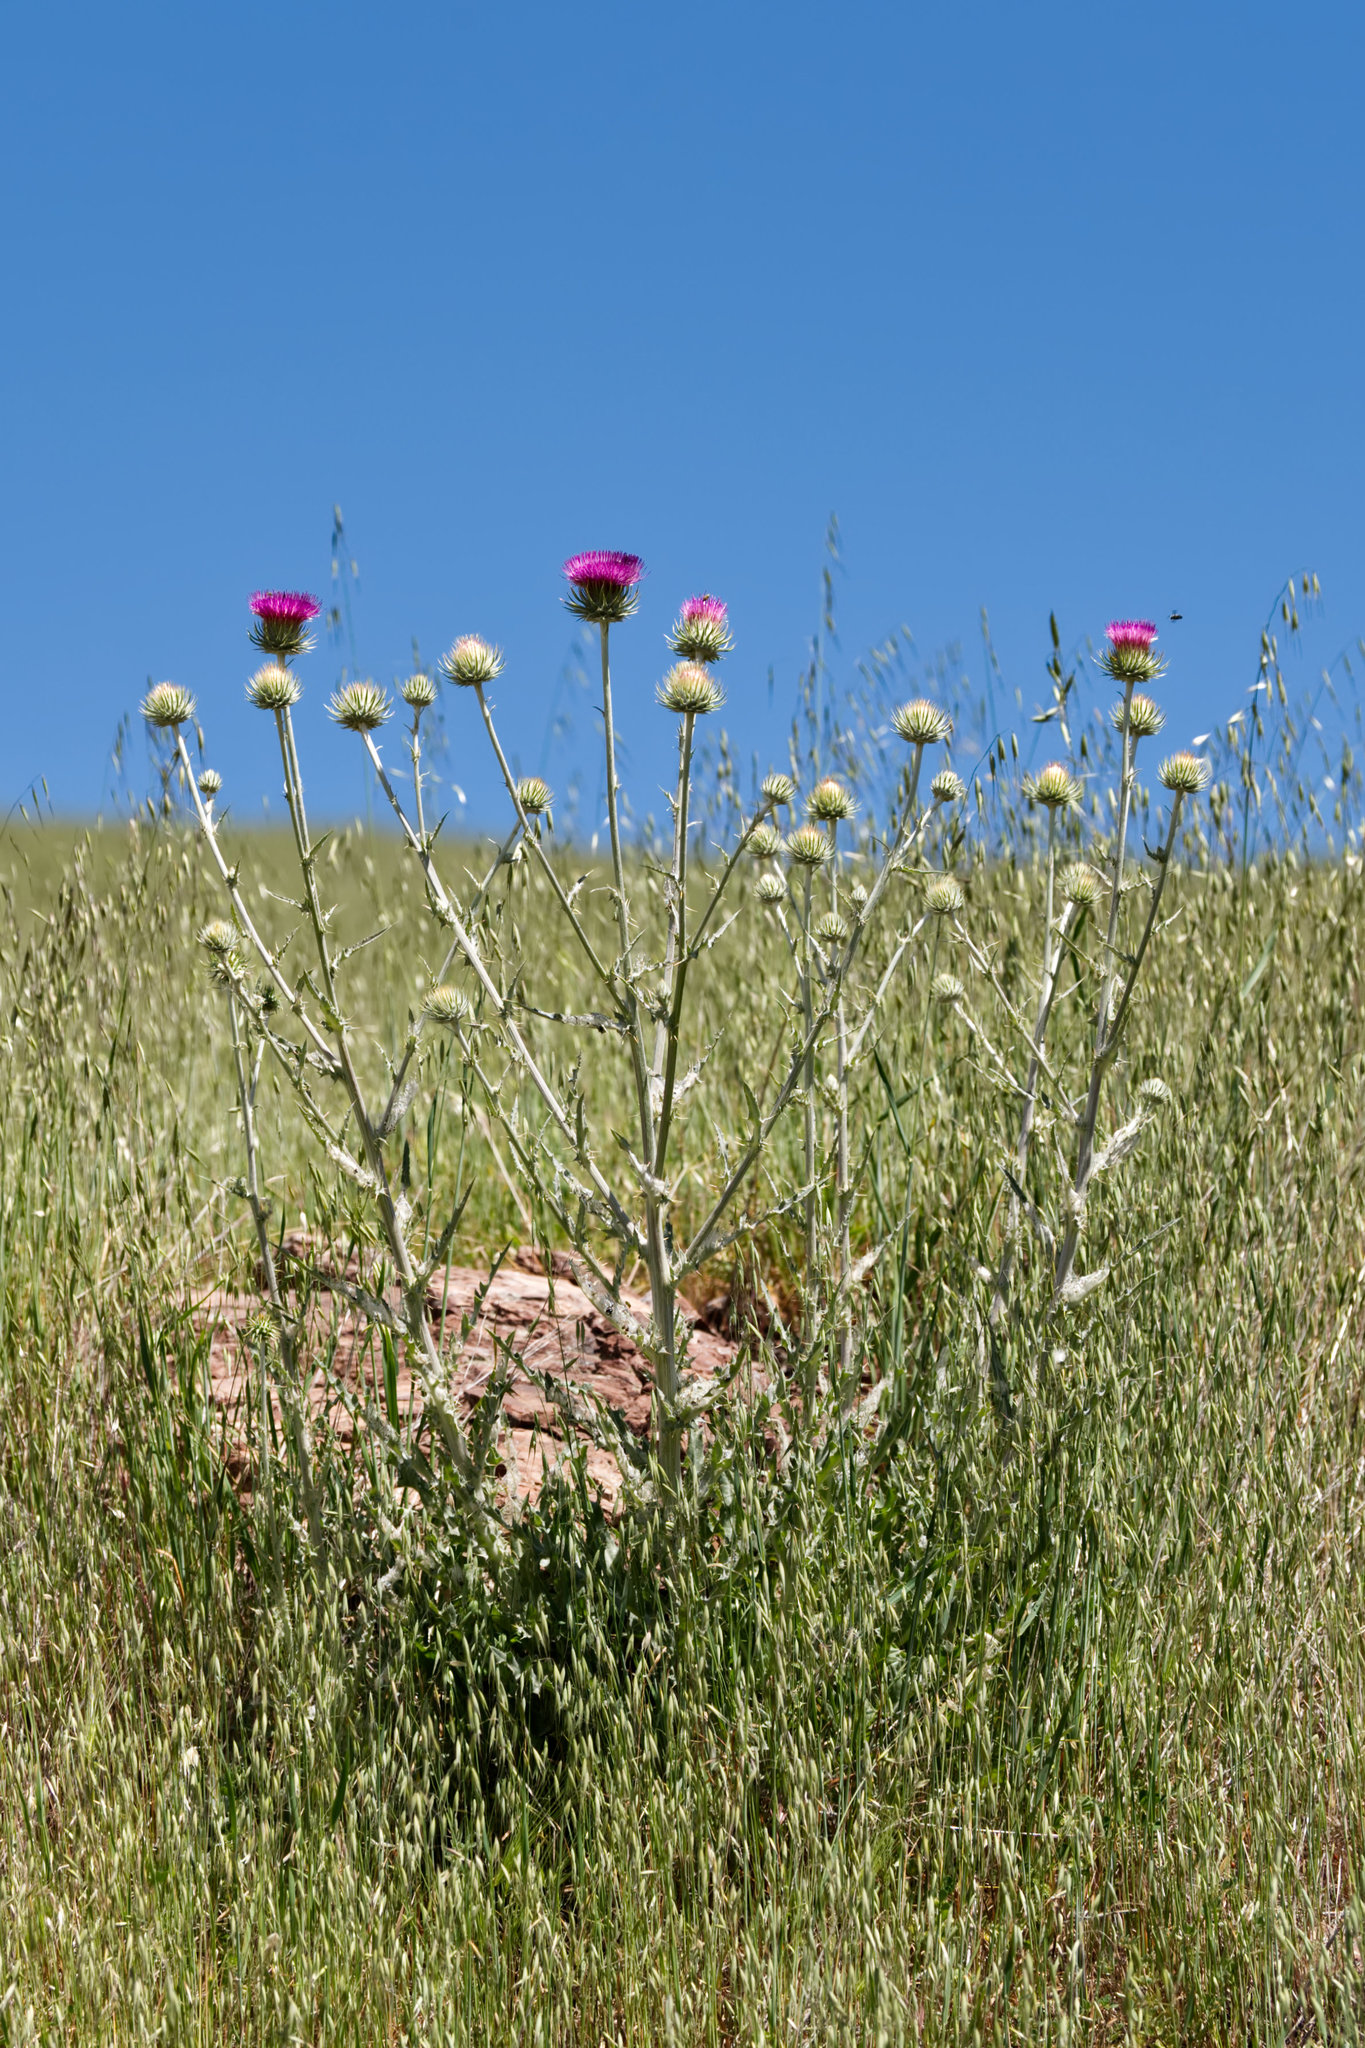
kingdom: Plantae
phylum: Tracheophyta
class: Magnoliopsida
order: Asterales
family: Asteraceae
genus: Cirsium
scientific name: Cirsium occidentale
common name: Western thistle
